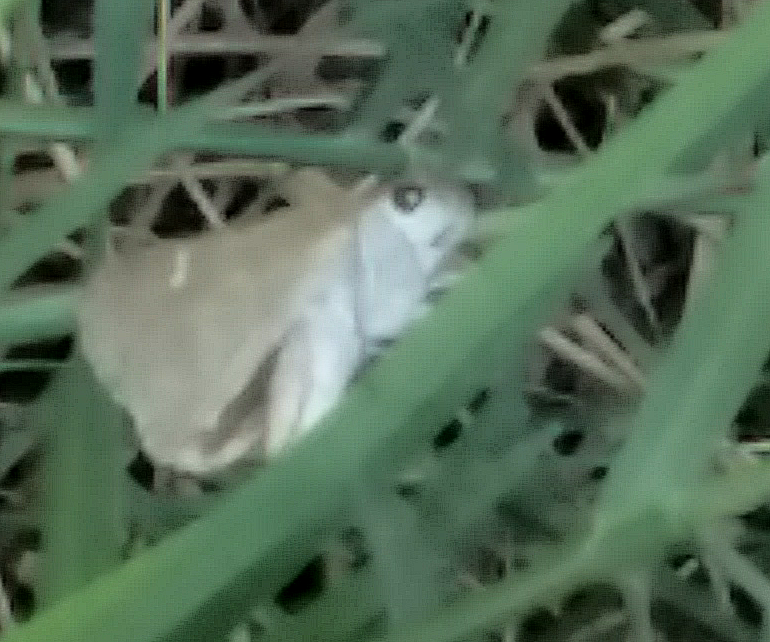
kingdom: Animalia
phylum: Arthropoda
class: Insecta
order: Lepidoptera
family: Hesperiidae
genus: Lerodea
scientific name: Lerodea eufala
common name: Eufala skipper
